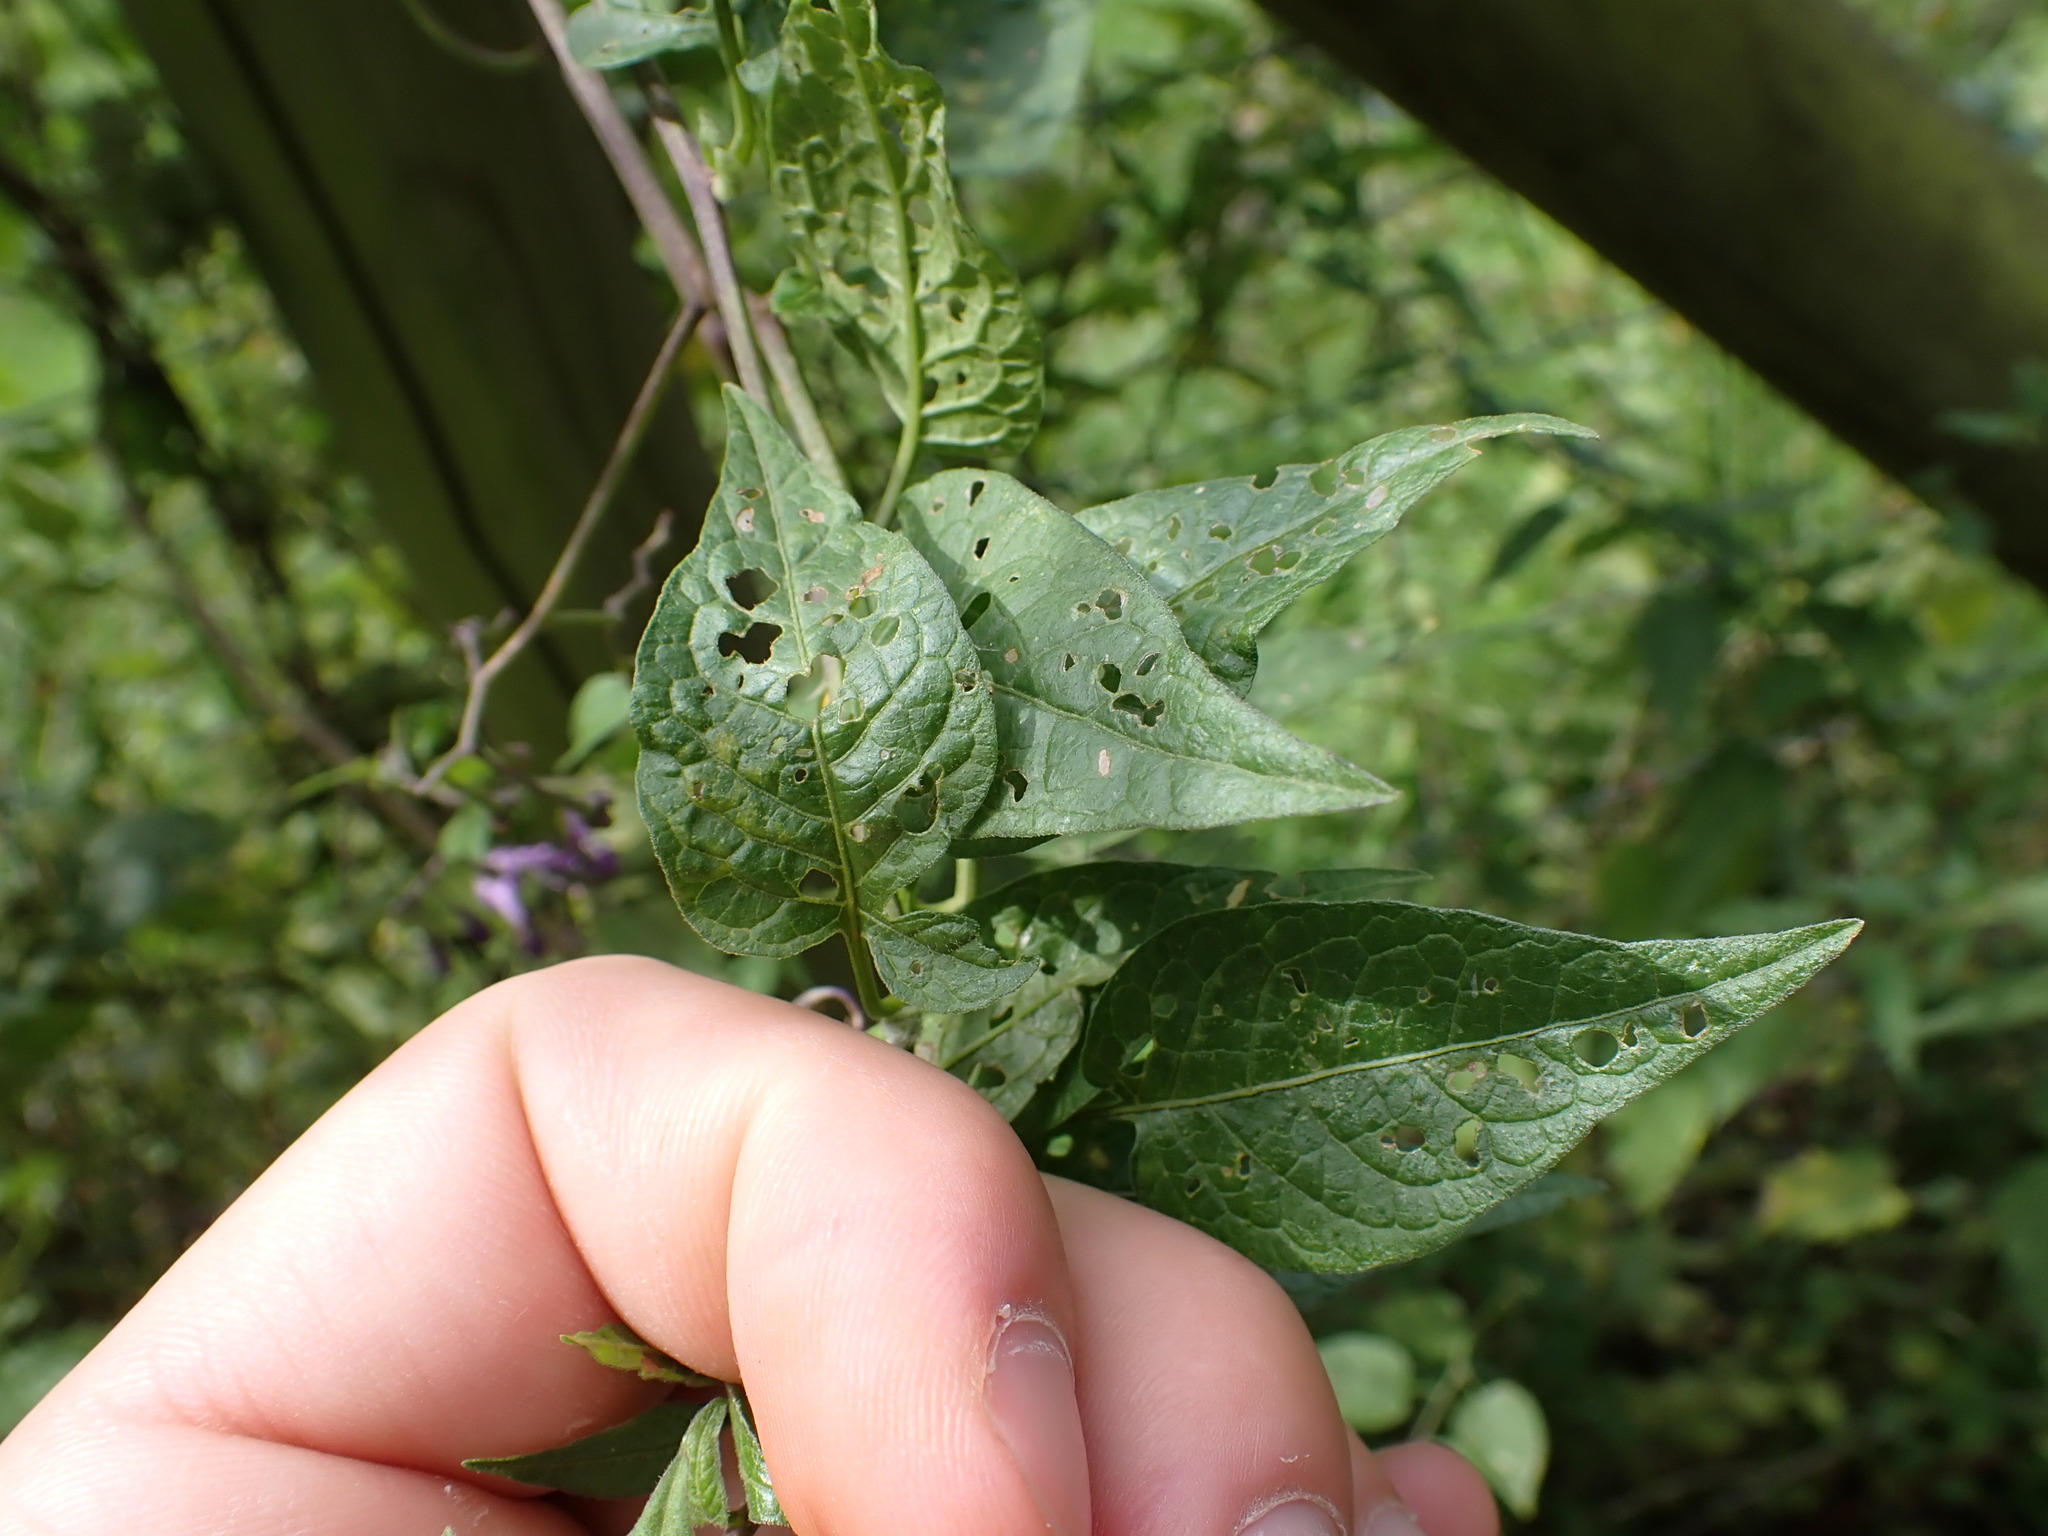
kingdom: Plantae
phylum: Tracheophyta
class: Magnoliopsida
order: Solanales
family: Solanaceae
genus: Solanum
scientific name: Solanum dulcamara
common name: Climbing nightshade
